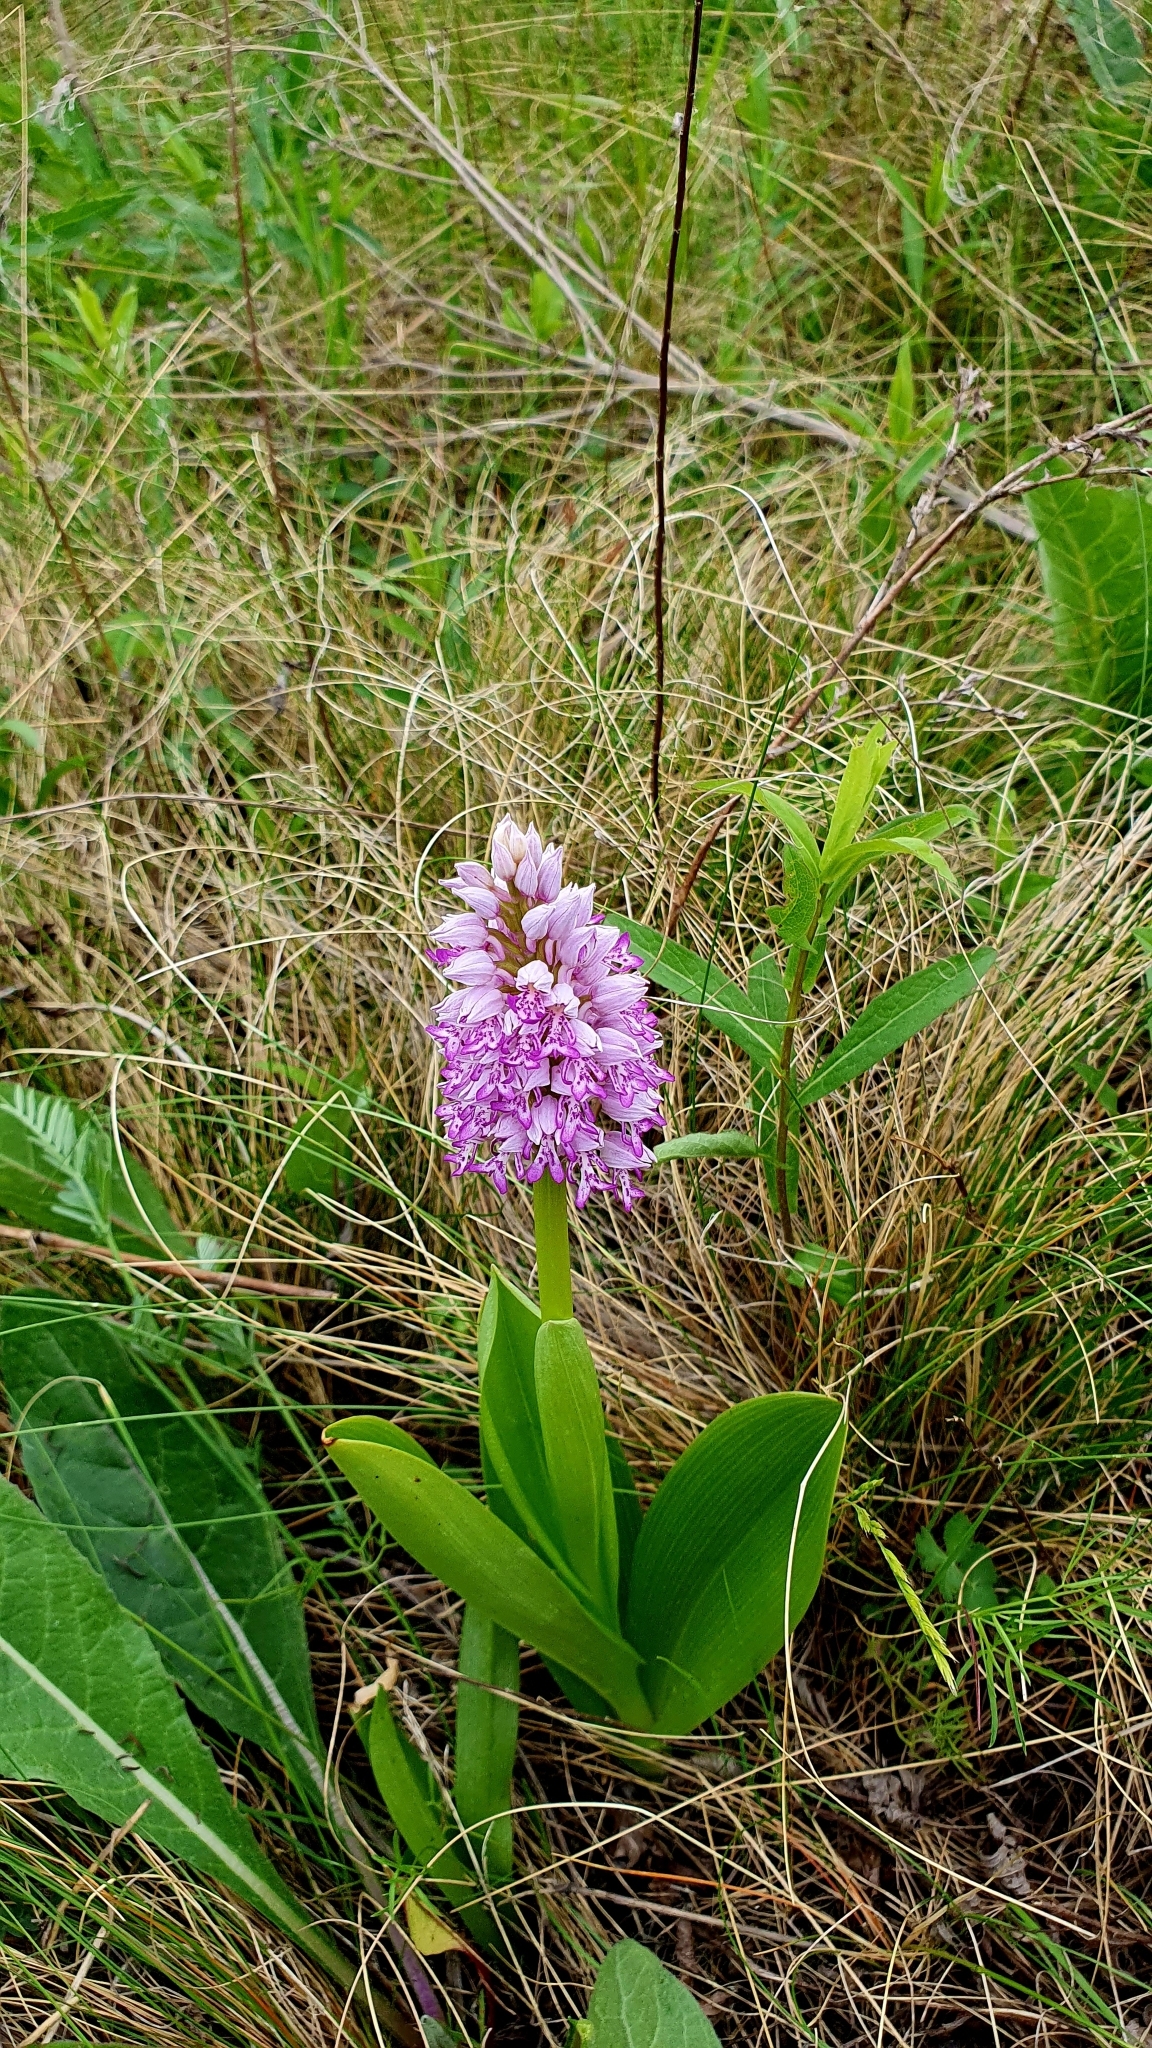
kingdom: Plantae
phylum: Tracheophyta
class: Liliopsida
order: Asparagales
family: Orchidaceae
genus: Orchis
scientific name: Orchis militaris
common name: Military orchid
